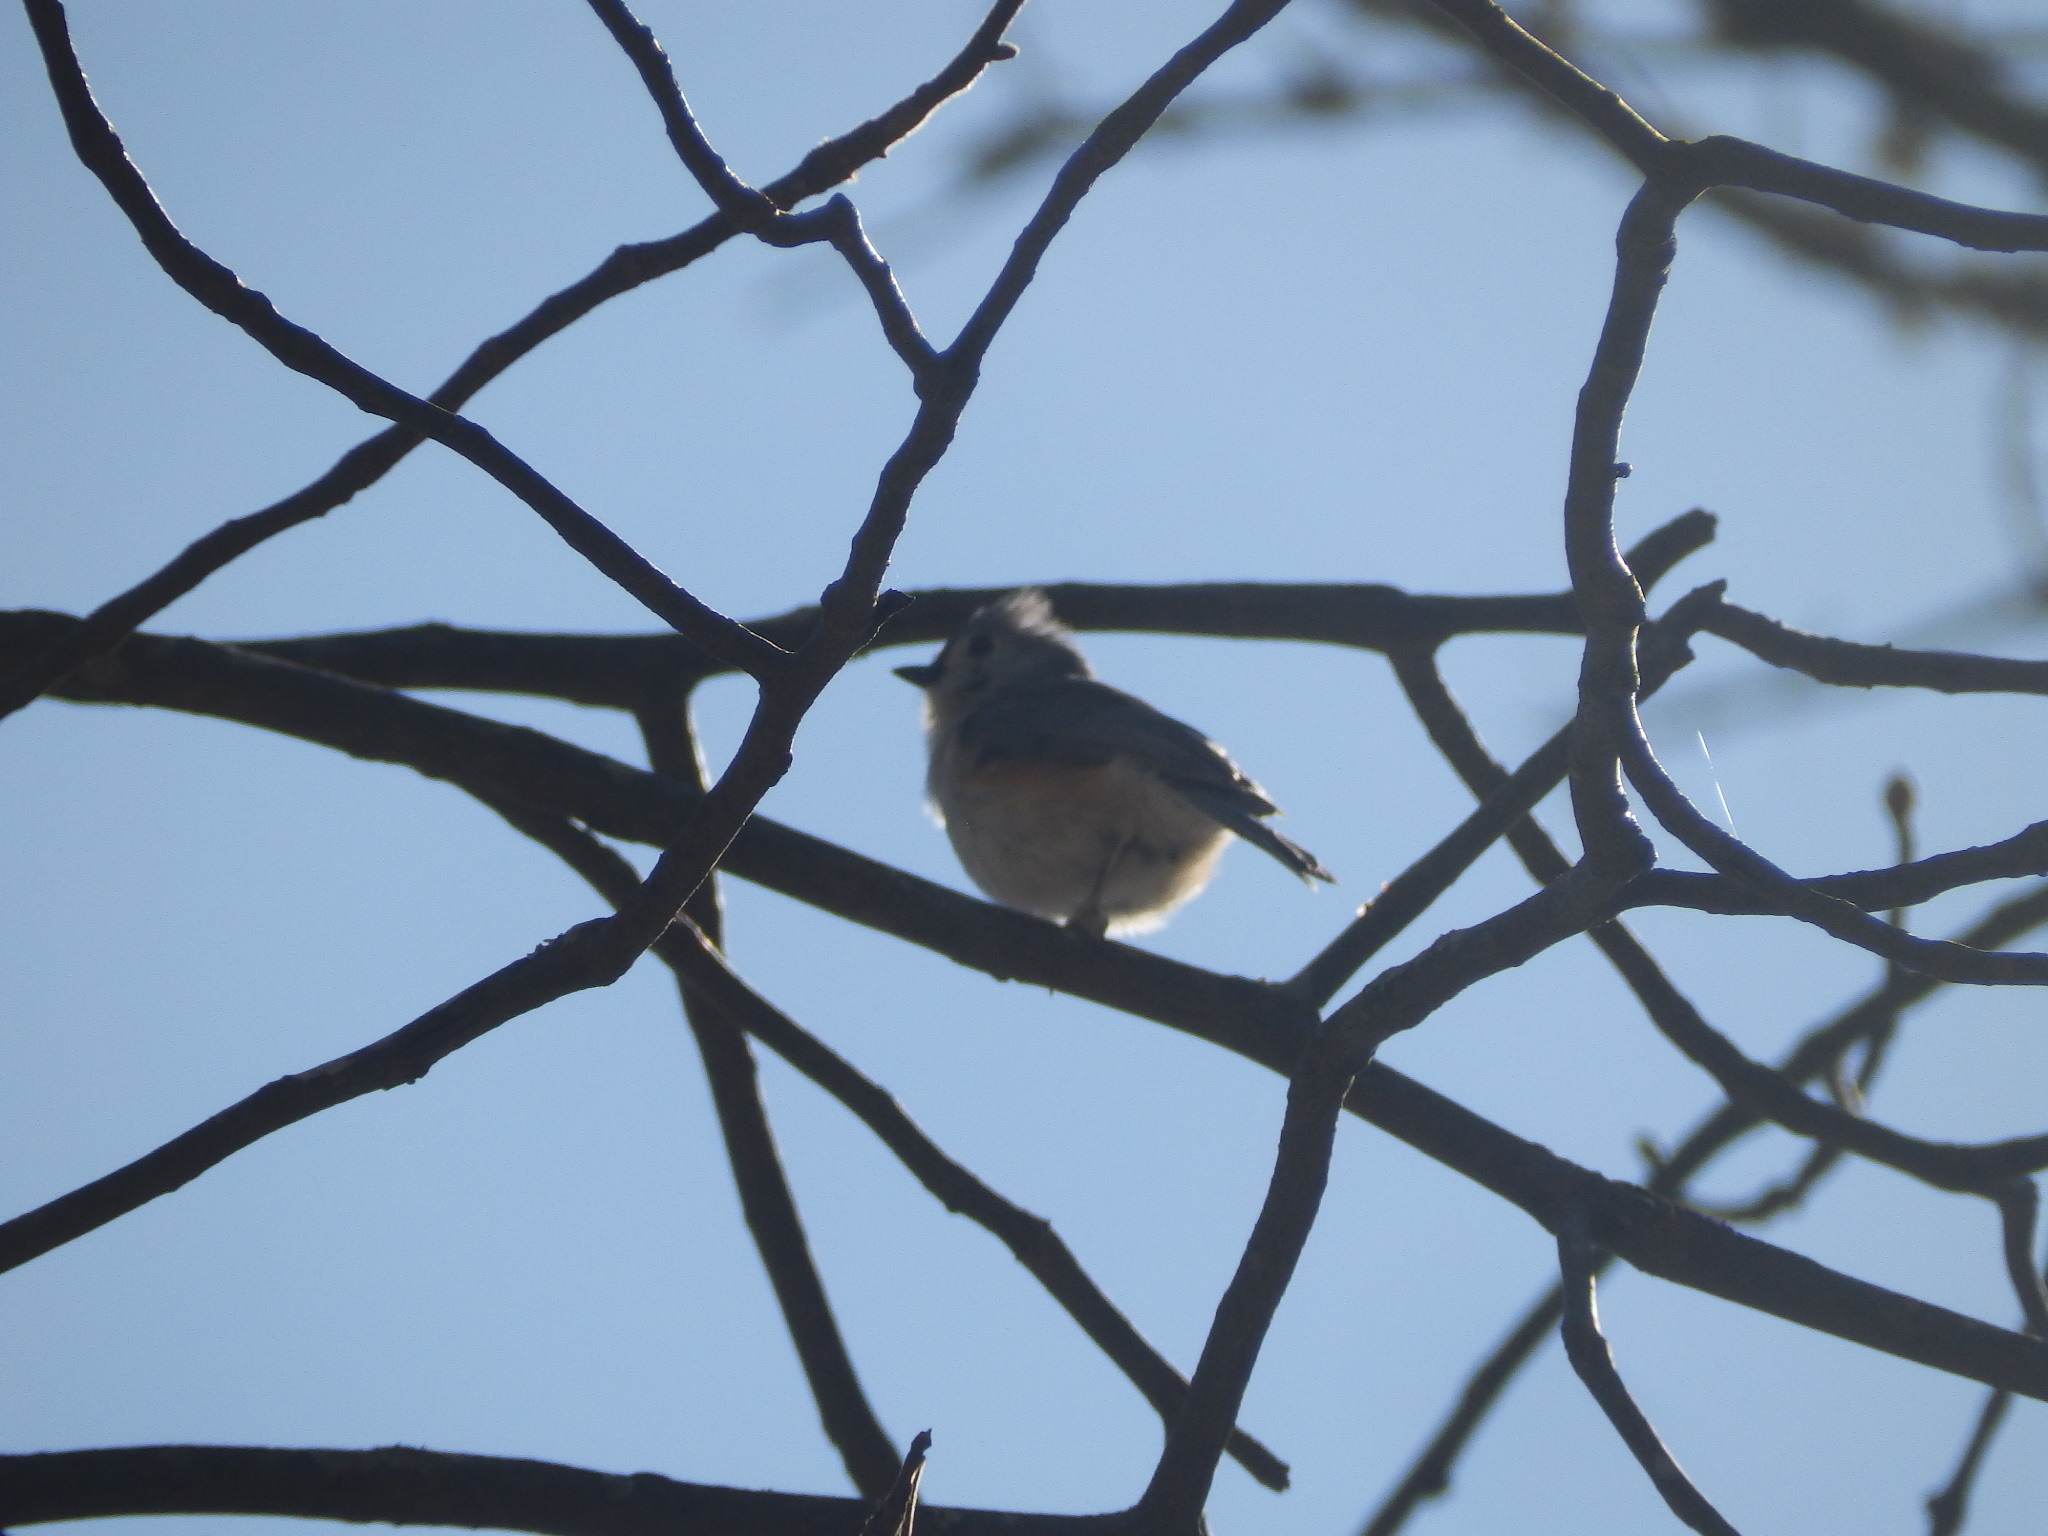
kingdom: Animalia
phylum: Chordata
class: Aves
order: Passeriformes
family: Paridae
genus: Baeolophus
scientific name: Baeolophus bicolor
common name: Tufted titmouse
